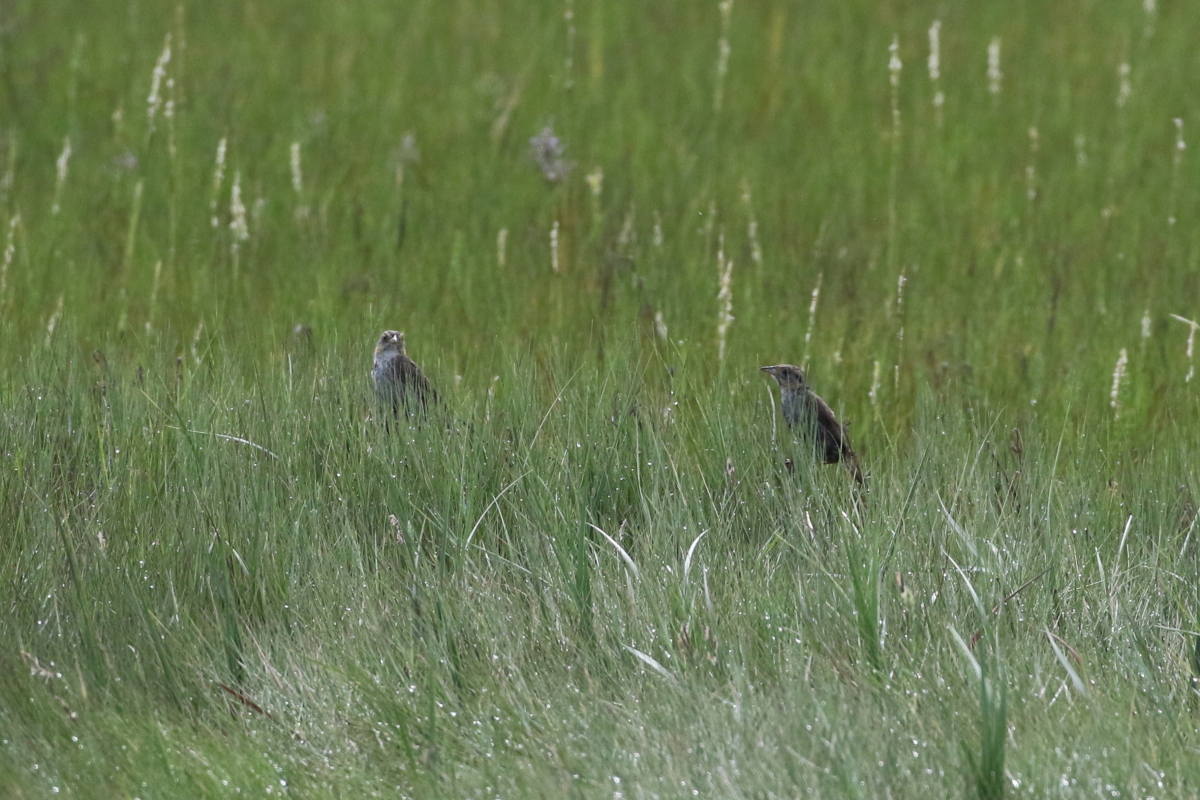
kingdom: Animalia
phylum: Chordata
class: Aves
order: Passeriformes
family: Passerellidae
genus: Ammospiza
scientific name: Ammospiza caudacuta
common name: Saltmarsh sparrow
